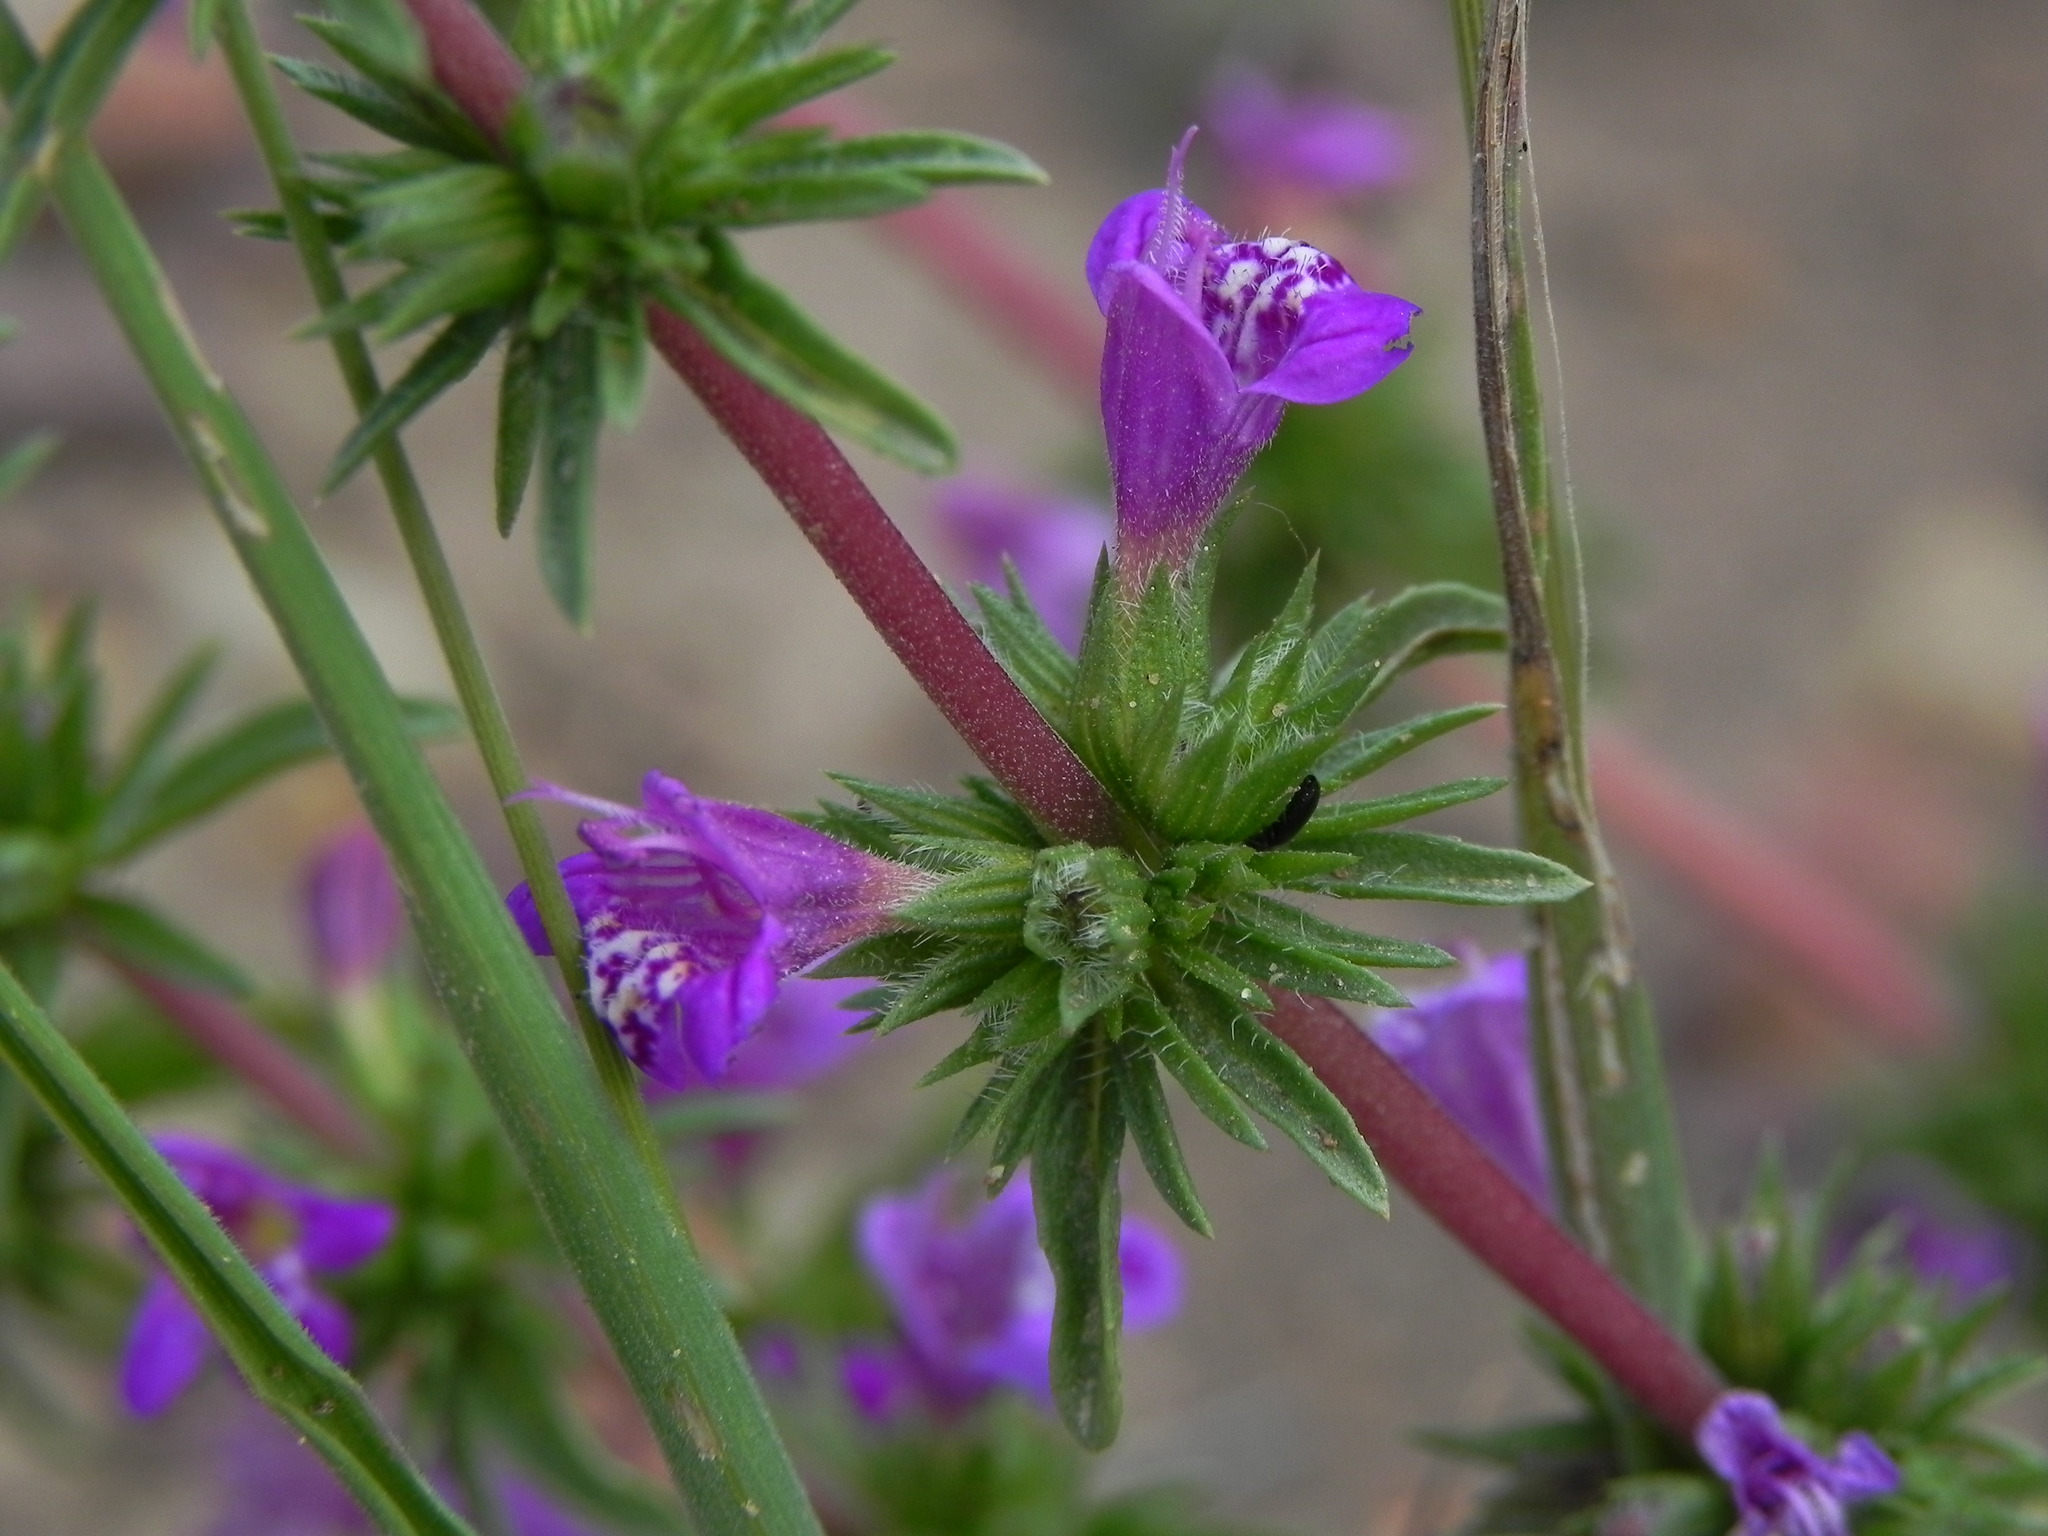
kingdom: Plantae
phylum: Tracheophyta
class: Magnoliopsida
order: Lamiales
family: Lamiaceae
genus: Pogogyne
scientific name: Pogogyne nudiuscula
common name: Otay mesa-mint
